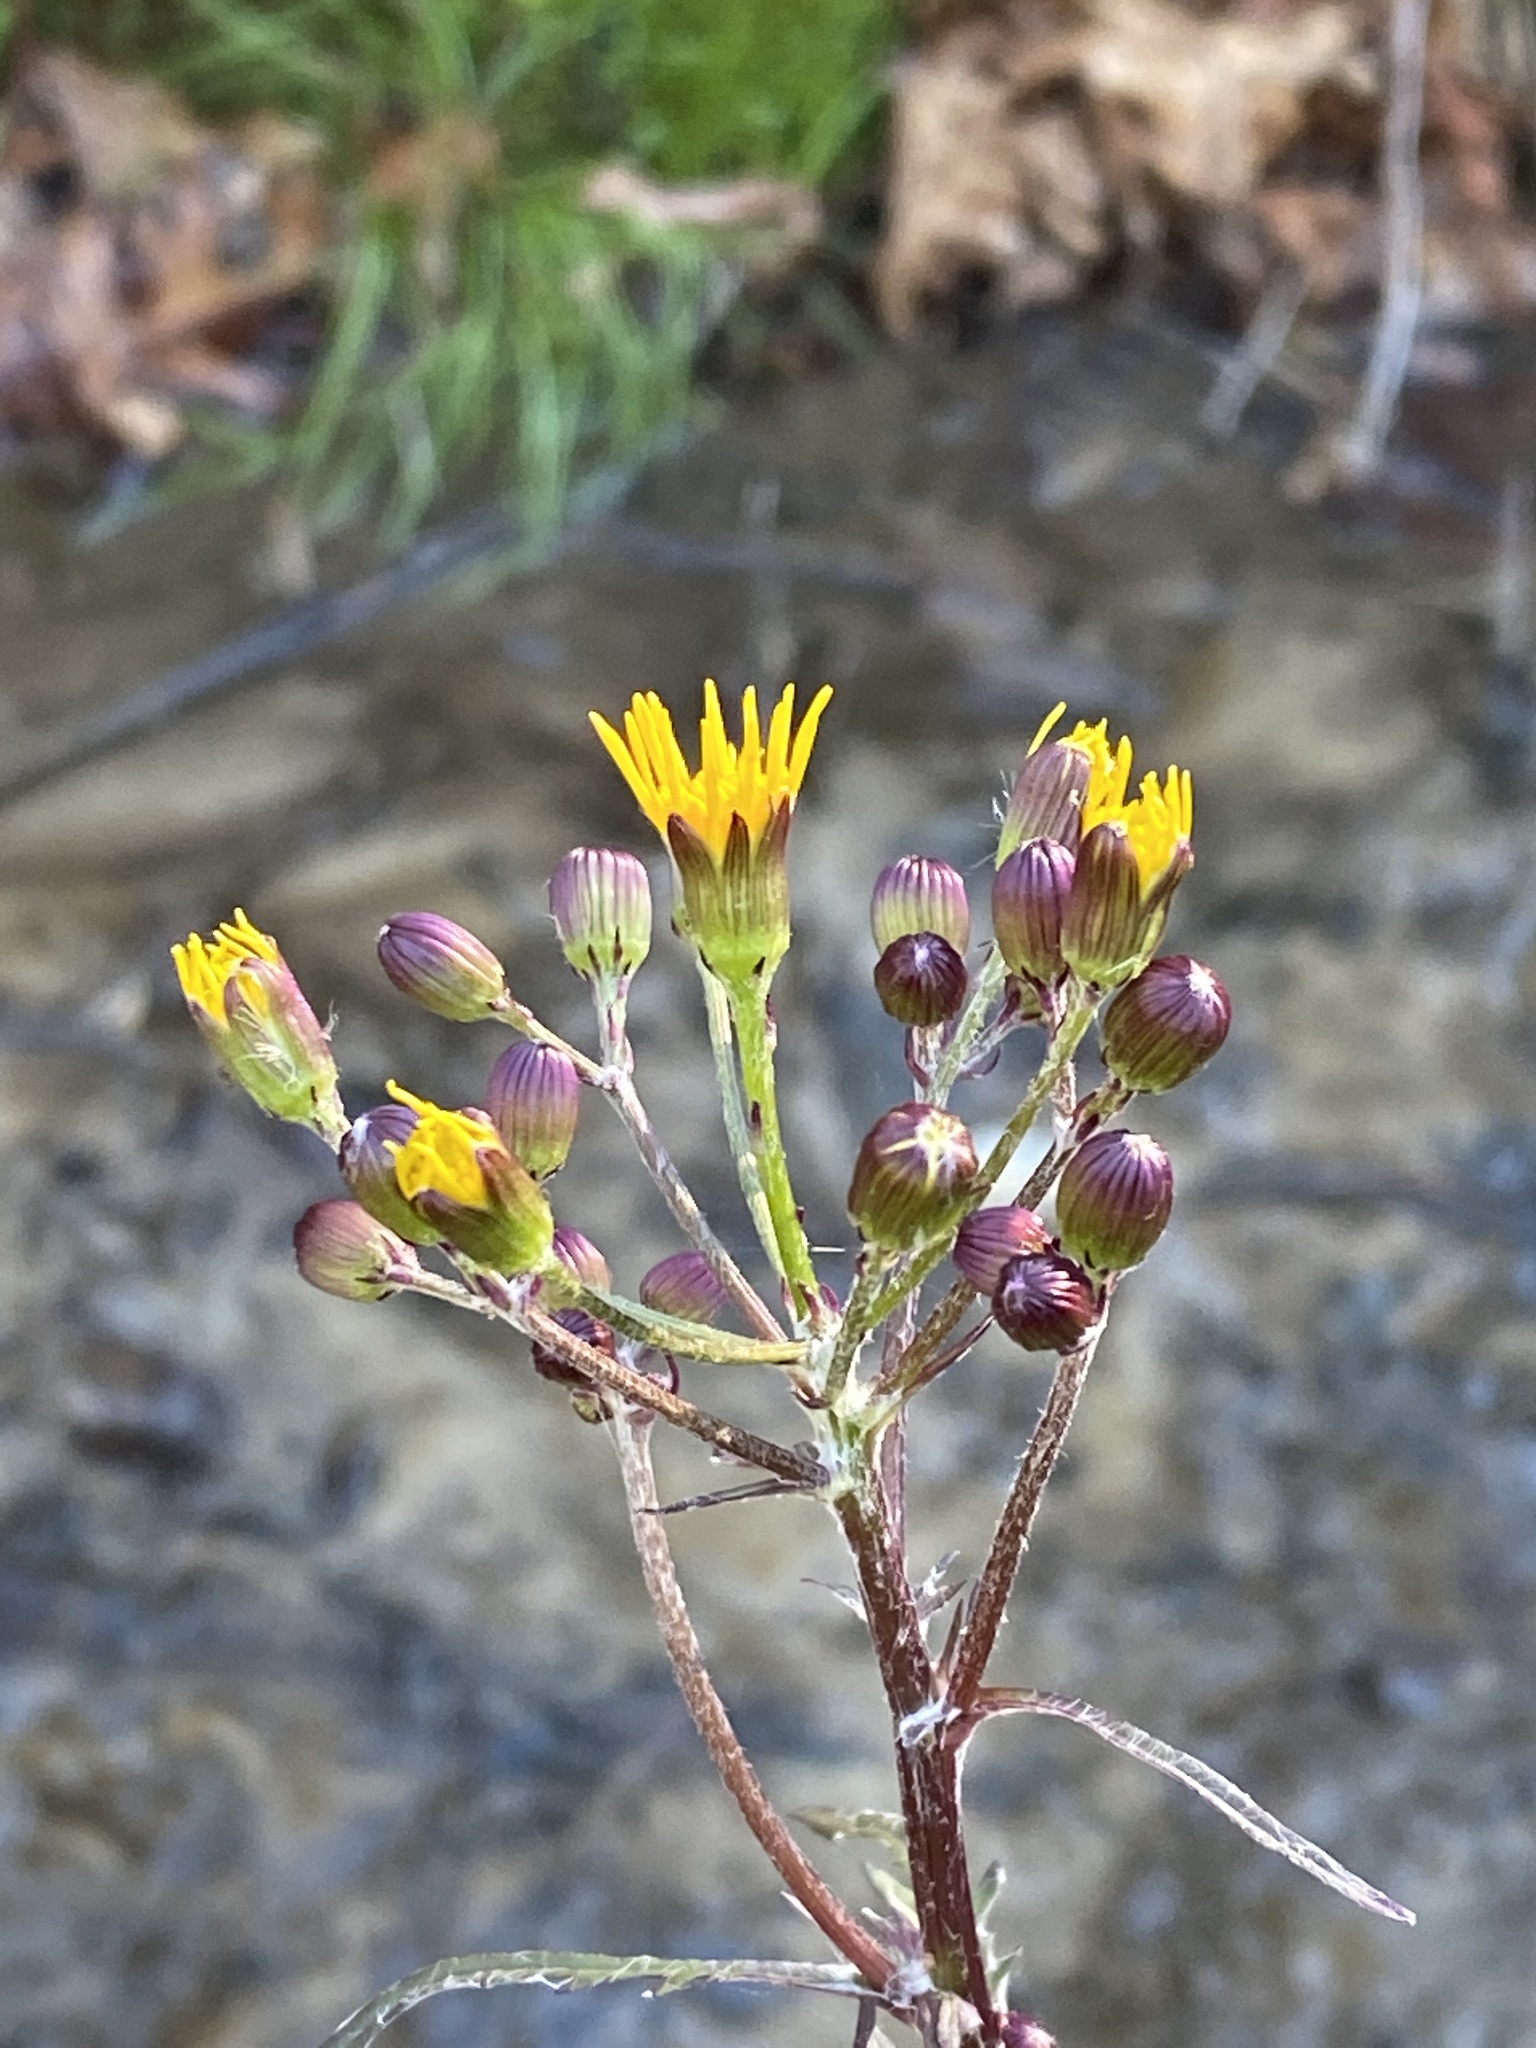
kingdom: Plantae
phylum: Tracheophyta
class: Magnoliopsida
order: Asterales
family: Asteraceae
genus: Packera
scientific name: Packera aurea
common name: Golden groundsel
